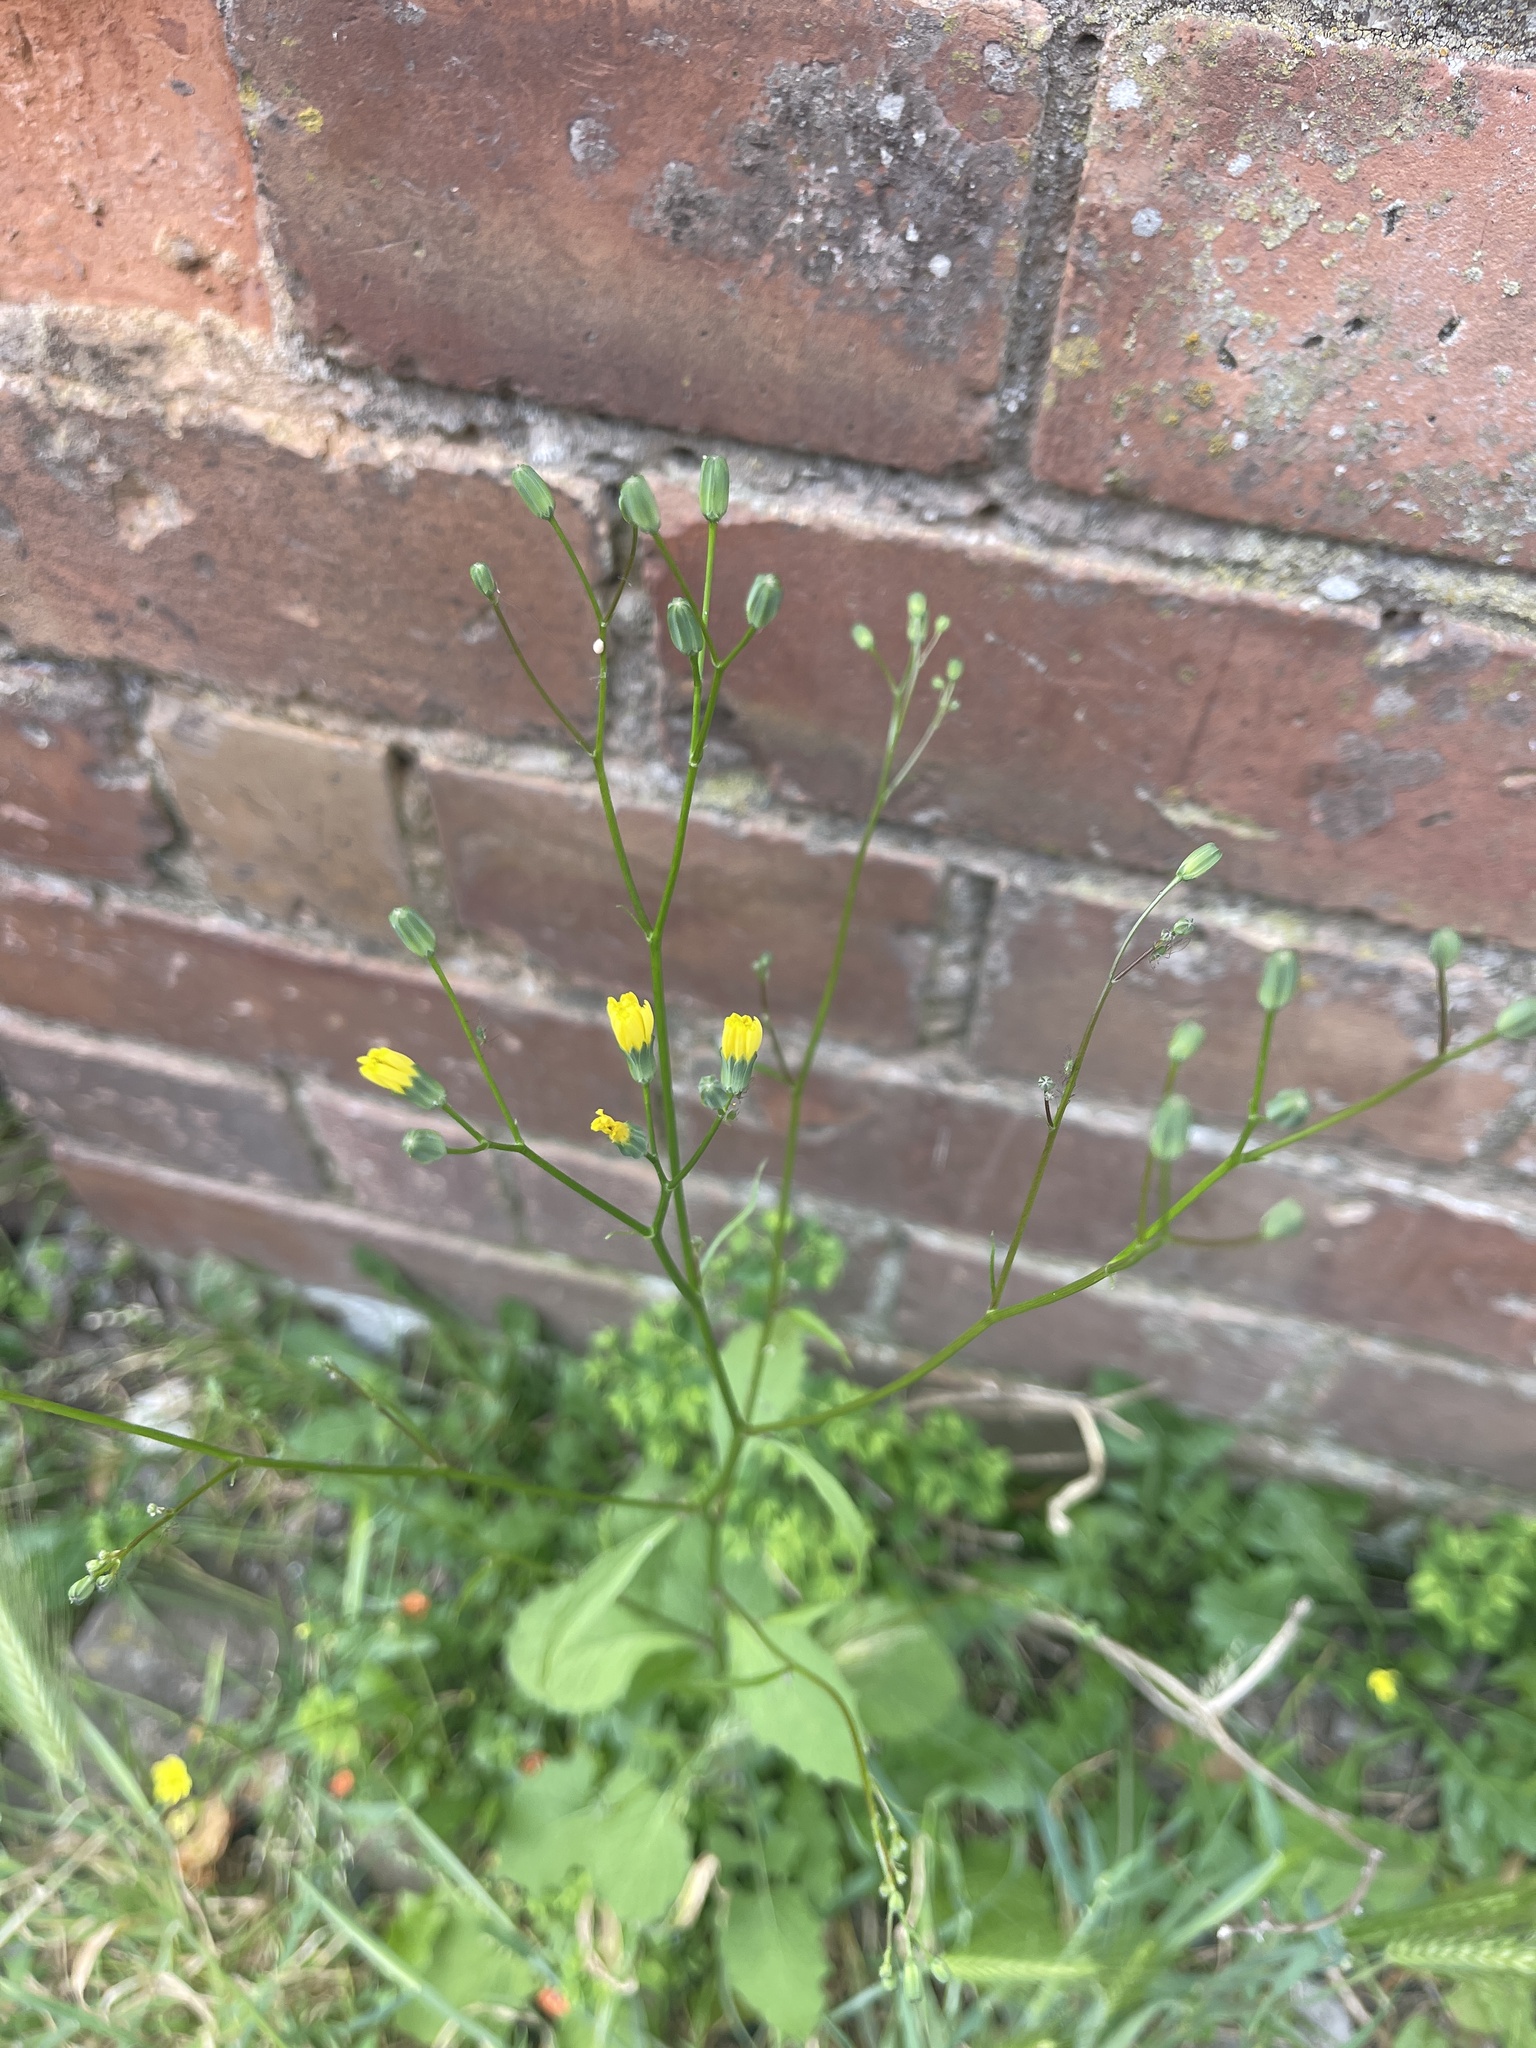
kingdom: Plantae
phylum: Tracheophyta
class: Magnoliopsida
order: Asterales
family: Asteraceae
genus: Lapsana
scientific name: Lapsana communis
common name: Nipplewort
